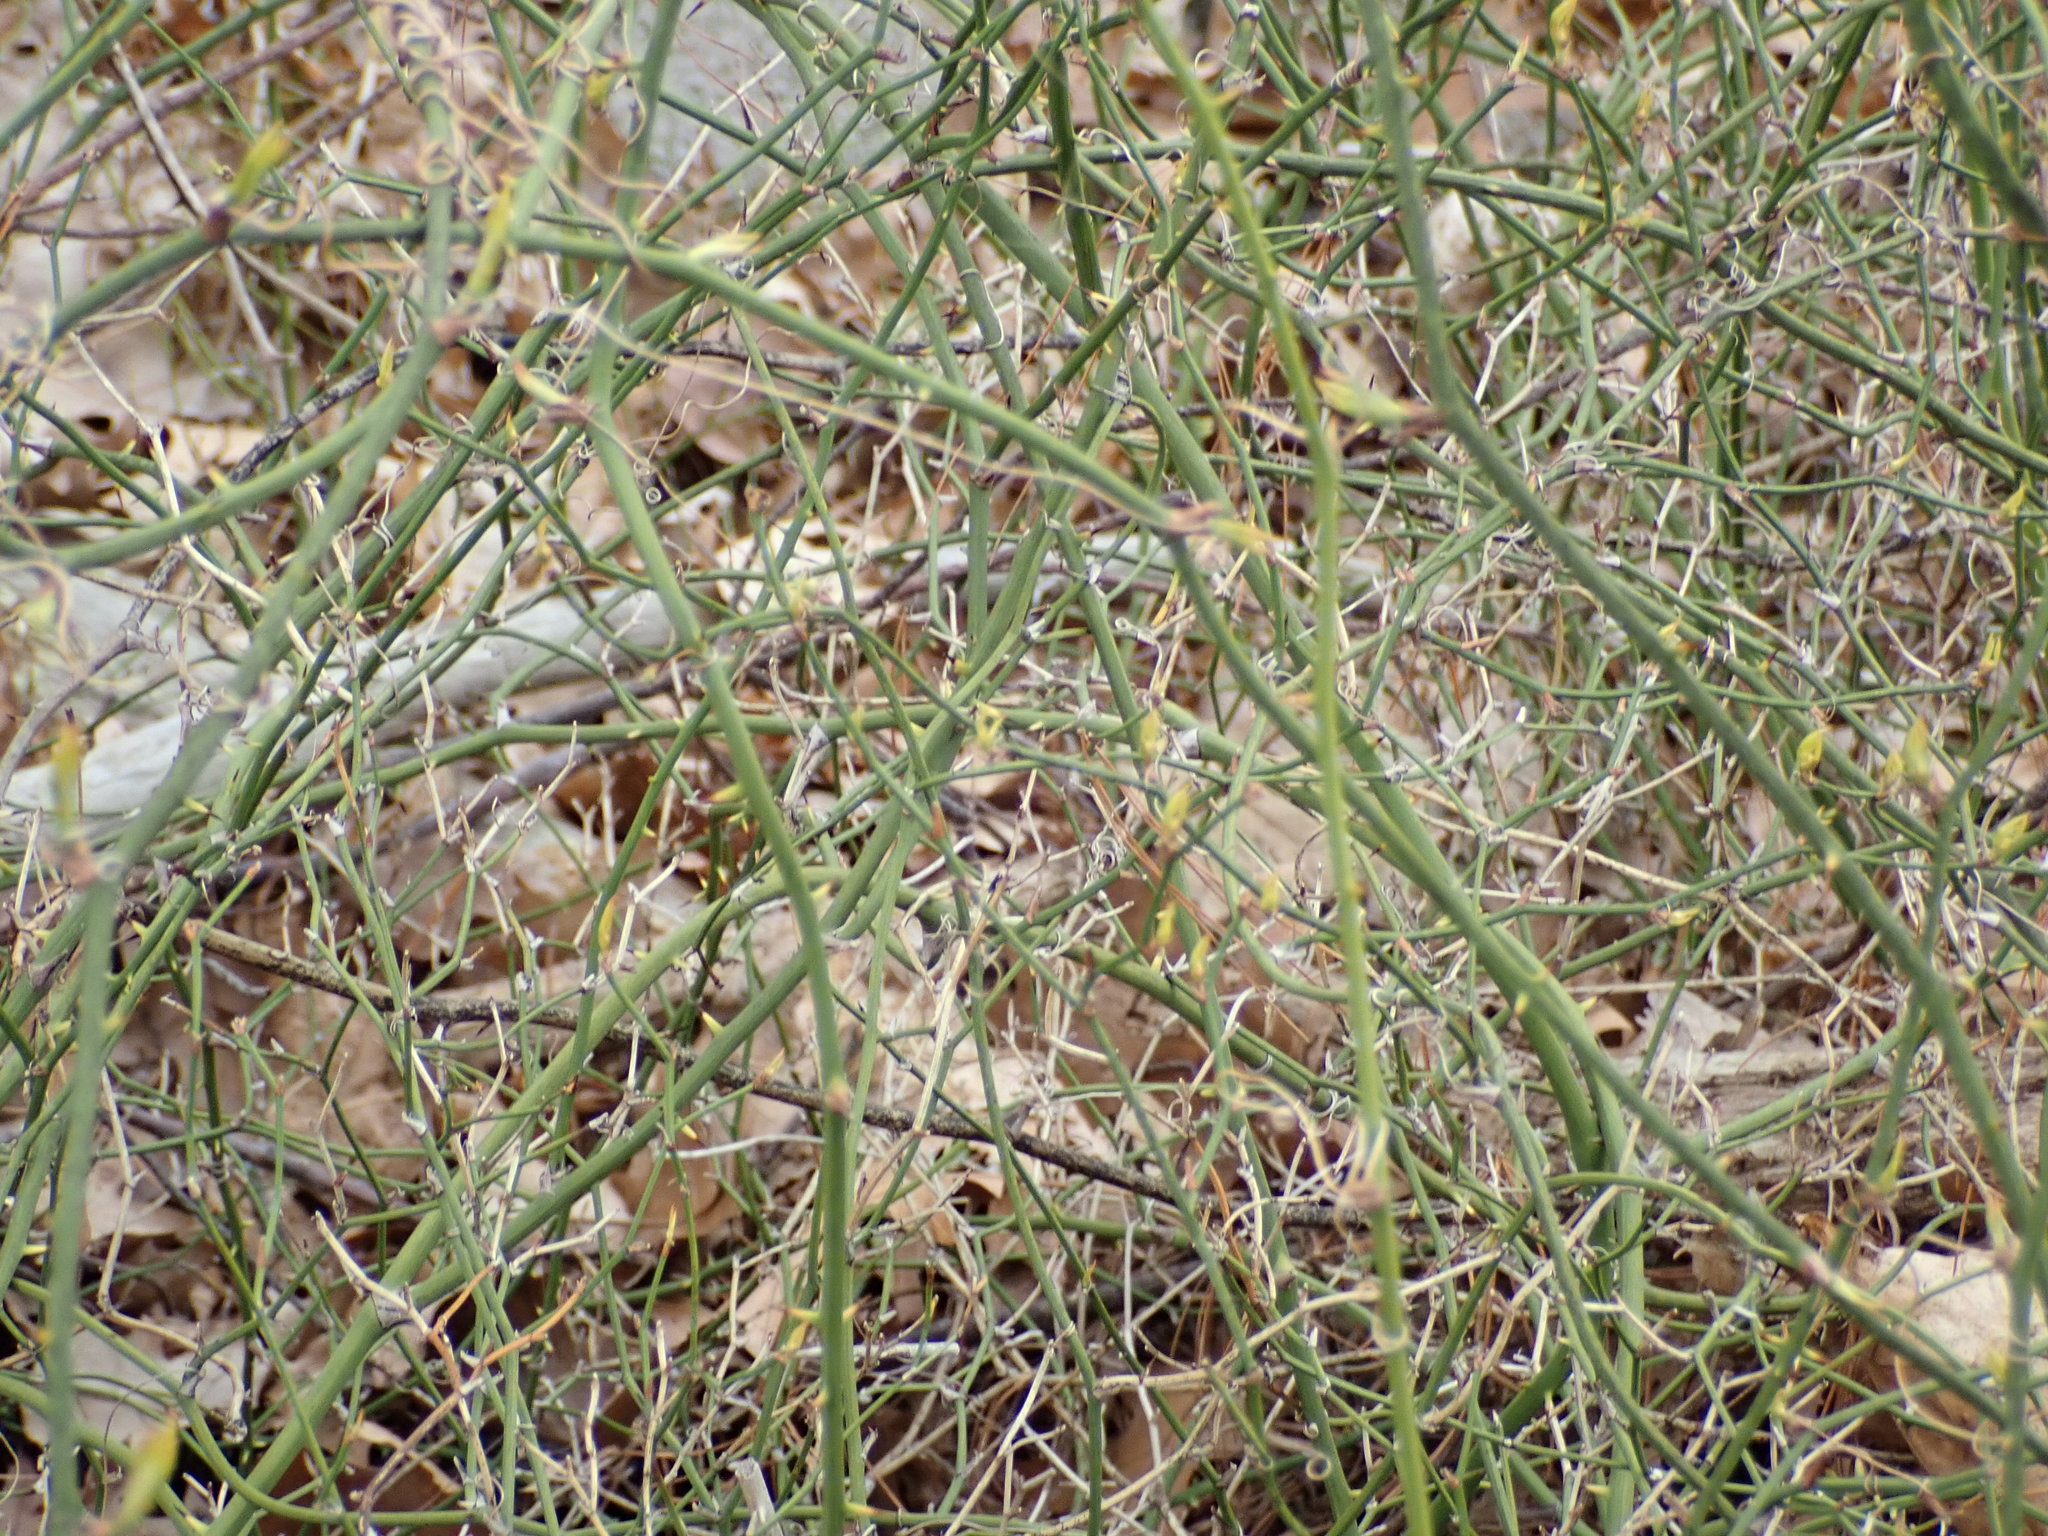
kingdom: Plantae
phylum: Tracheophyta
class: Liliopsida
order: Liliales
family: Smilacaceae
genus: Smilax
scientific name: Smilax rotundifolia
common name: Bullbriar
